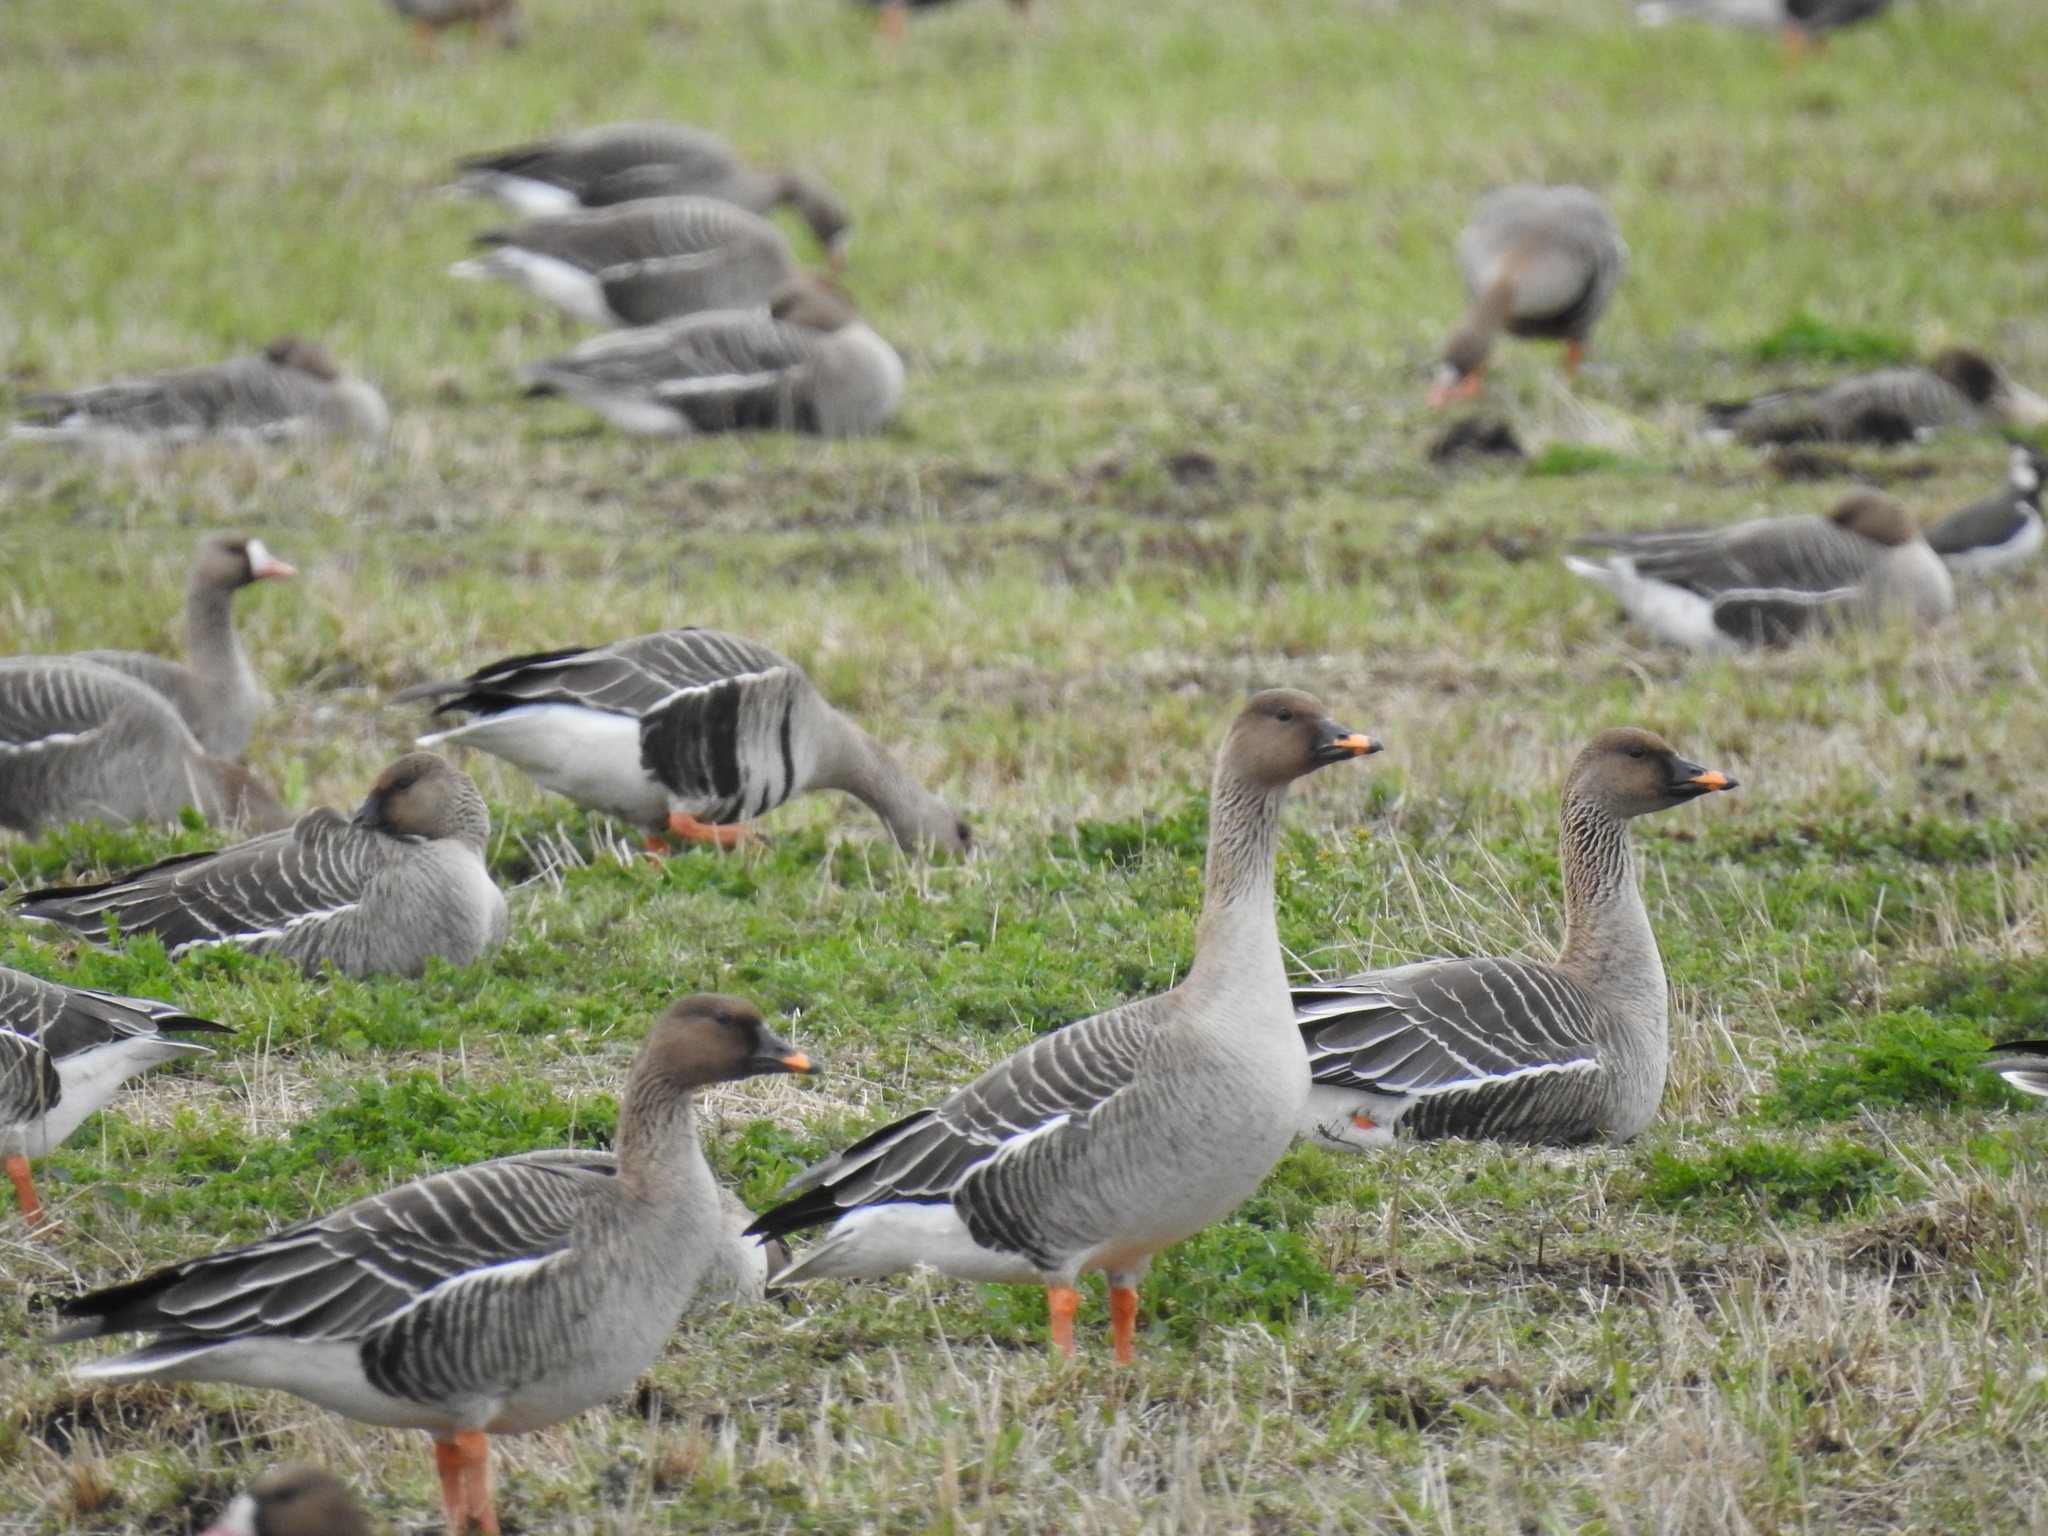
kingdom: Animalia
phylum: Chordata
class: Aves
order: Anseriformes
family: Anatidae
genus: Anser
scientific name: Anser serrirostris
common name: Tundra bean goose
